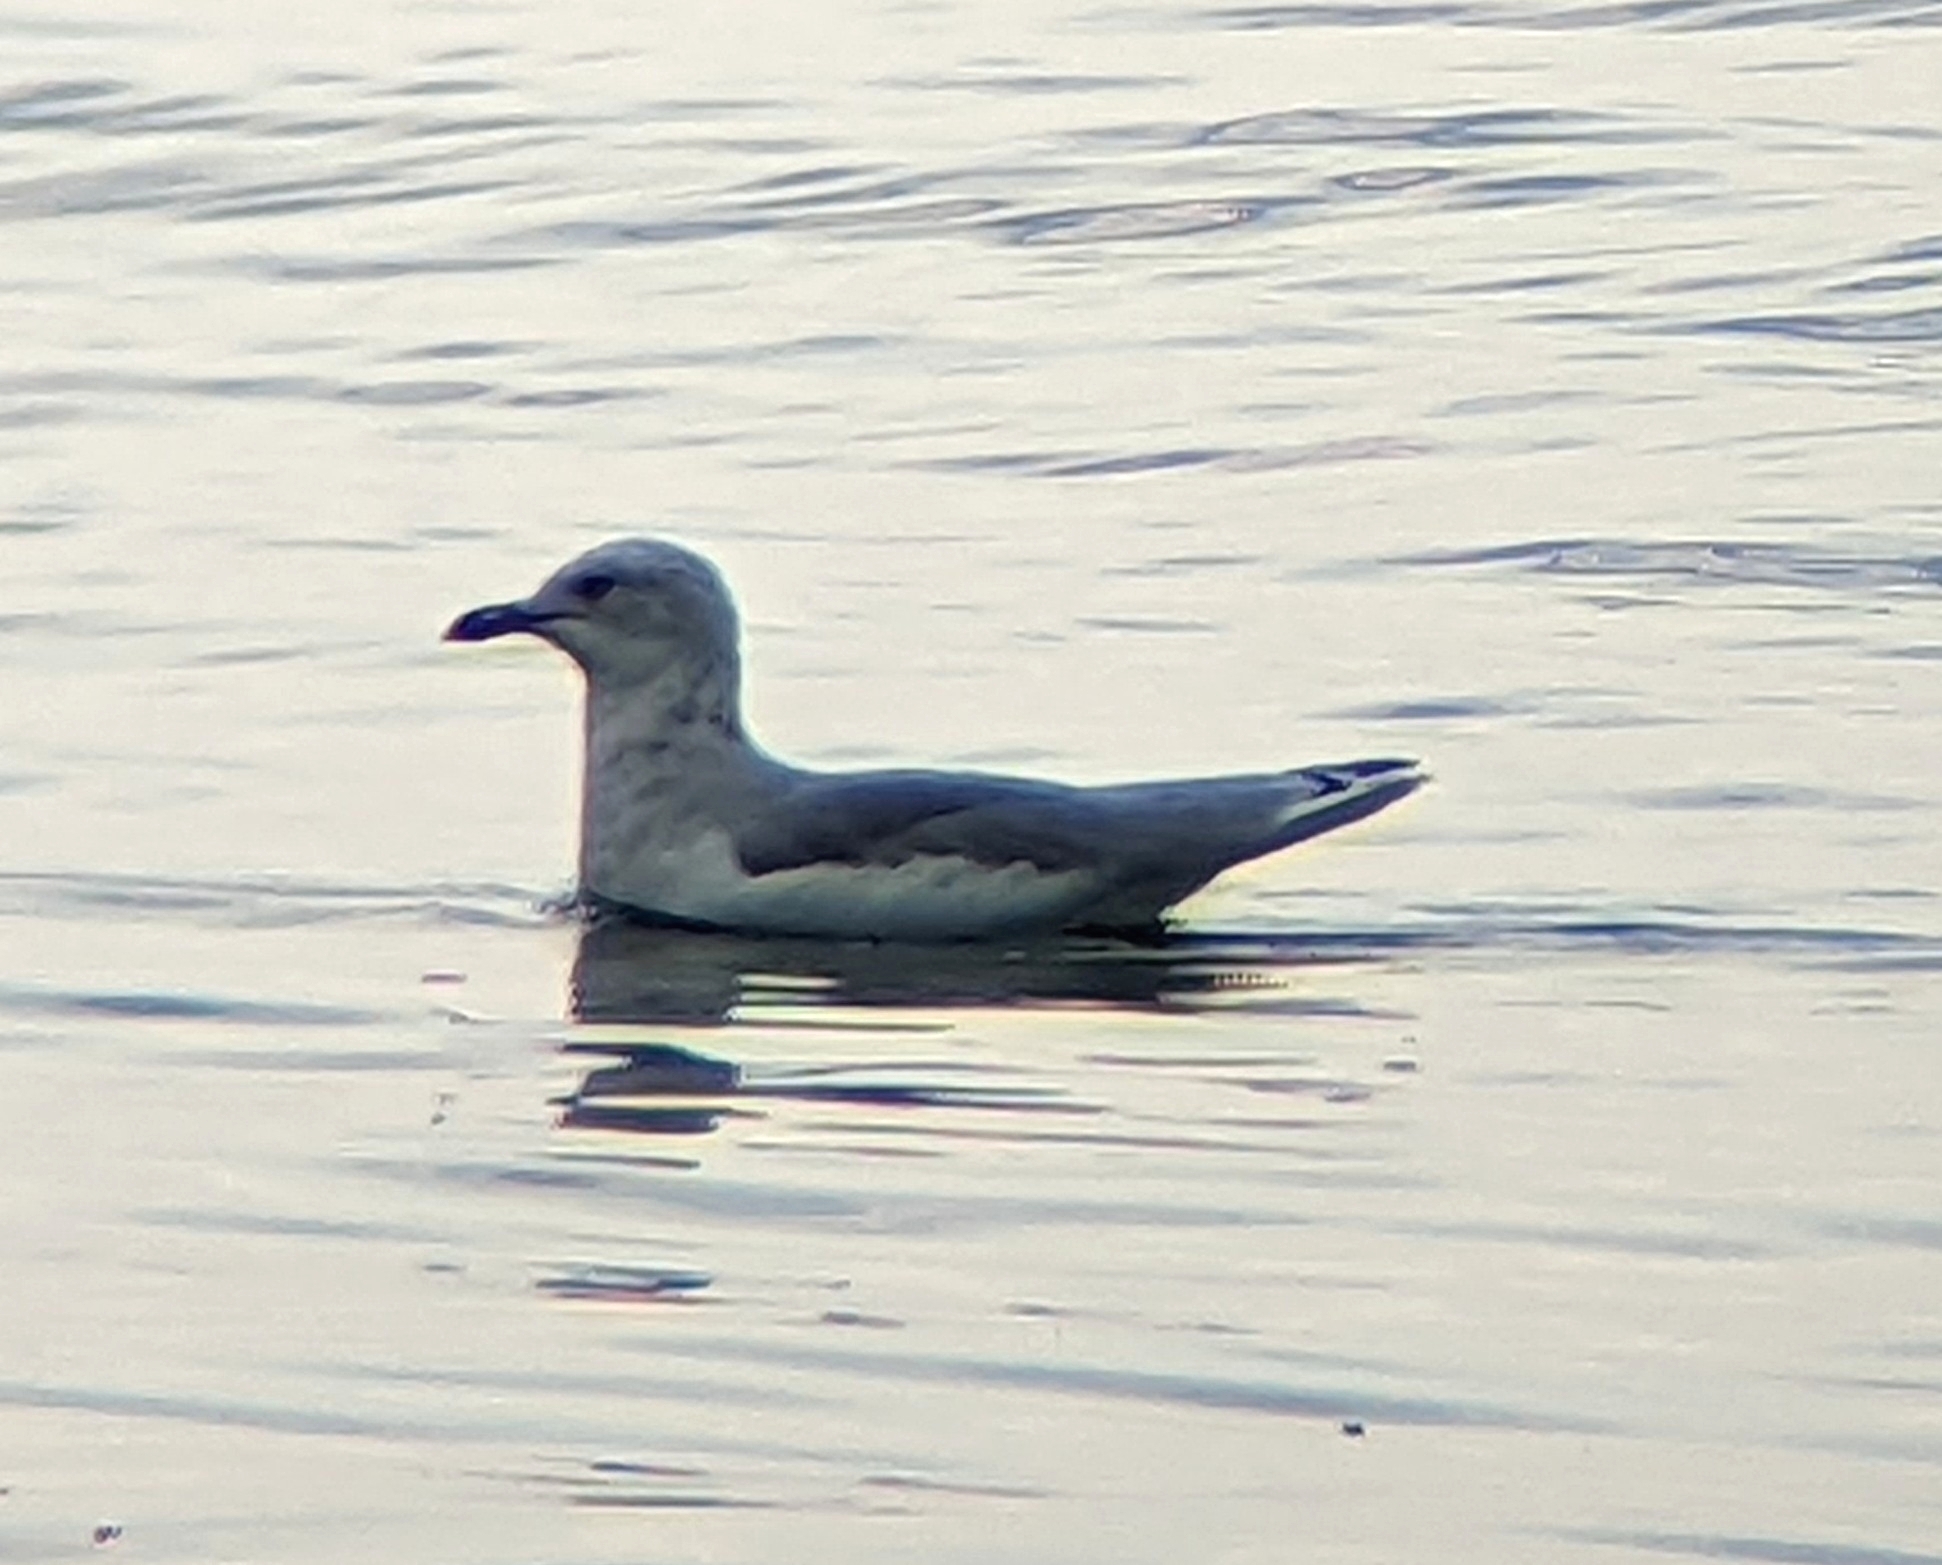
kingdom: Animalia
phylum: Chordata
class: Aves
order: Charadriiformes
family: Laridae
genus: Larus
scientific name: Larus delawarensis
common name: Ring-billed gull
